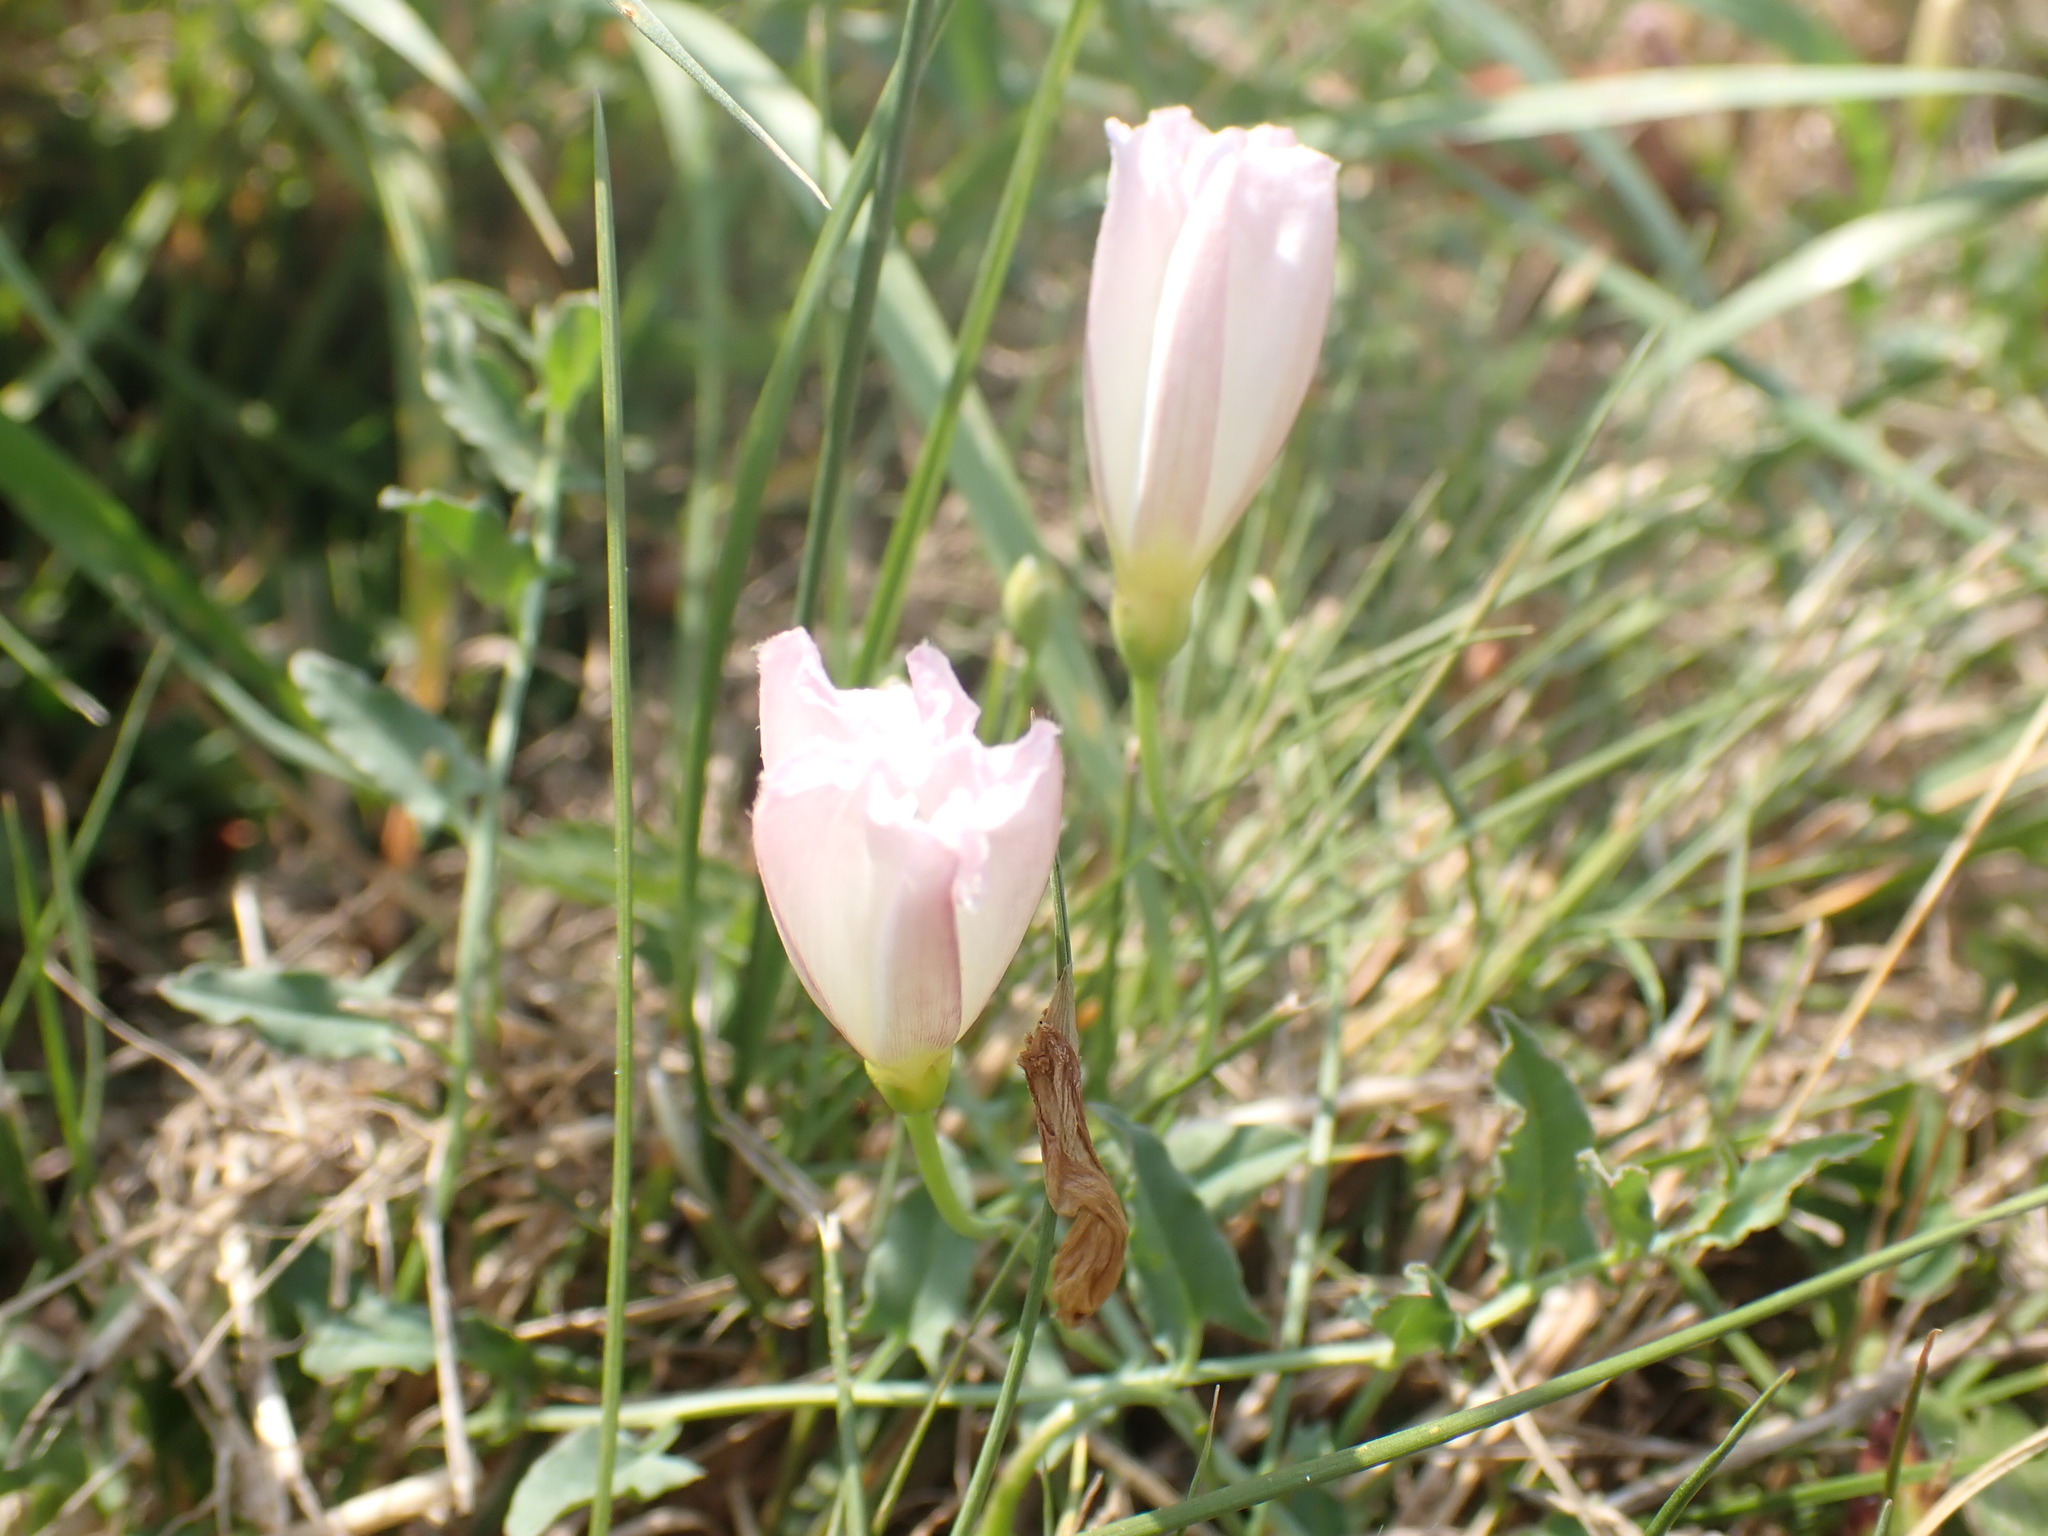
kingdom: Plantae
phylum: Tracheophyta
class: Magnoliopsida
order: Solanales
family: Convolvulaceae
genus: Convolvulus
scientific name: Convolvulus arvensis
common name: Field bindweed
